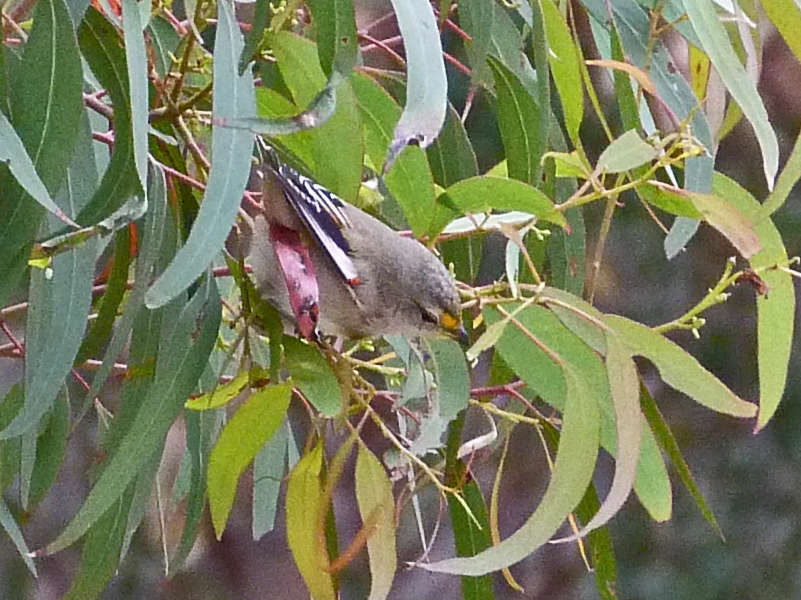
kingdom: Animalia
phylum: Chordata
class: Aves
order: Passeriformes
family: Pardalotidae
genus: Pardalotus
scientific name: Pardalotus striatus
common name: Striated pardalote
